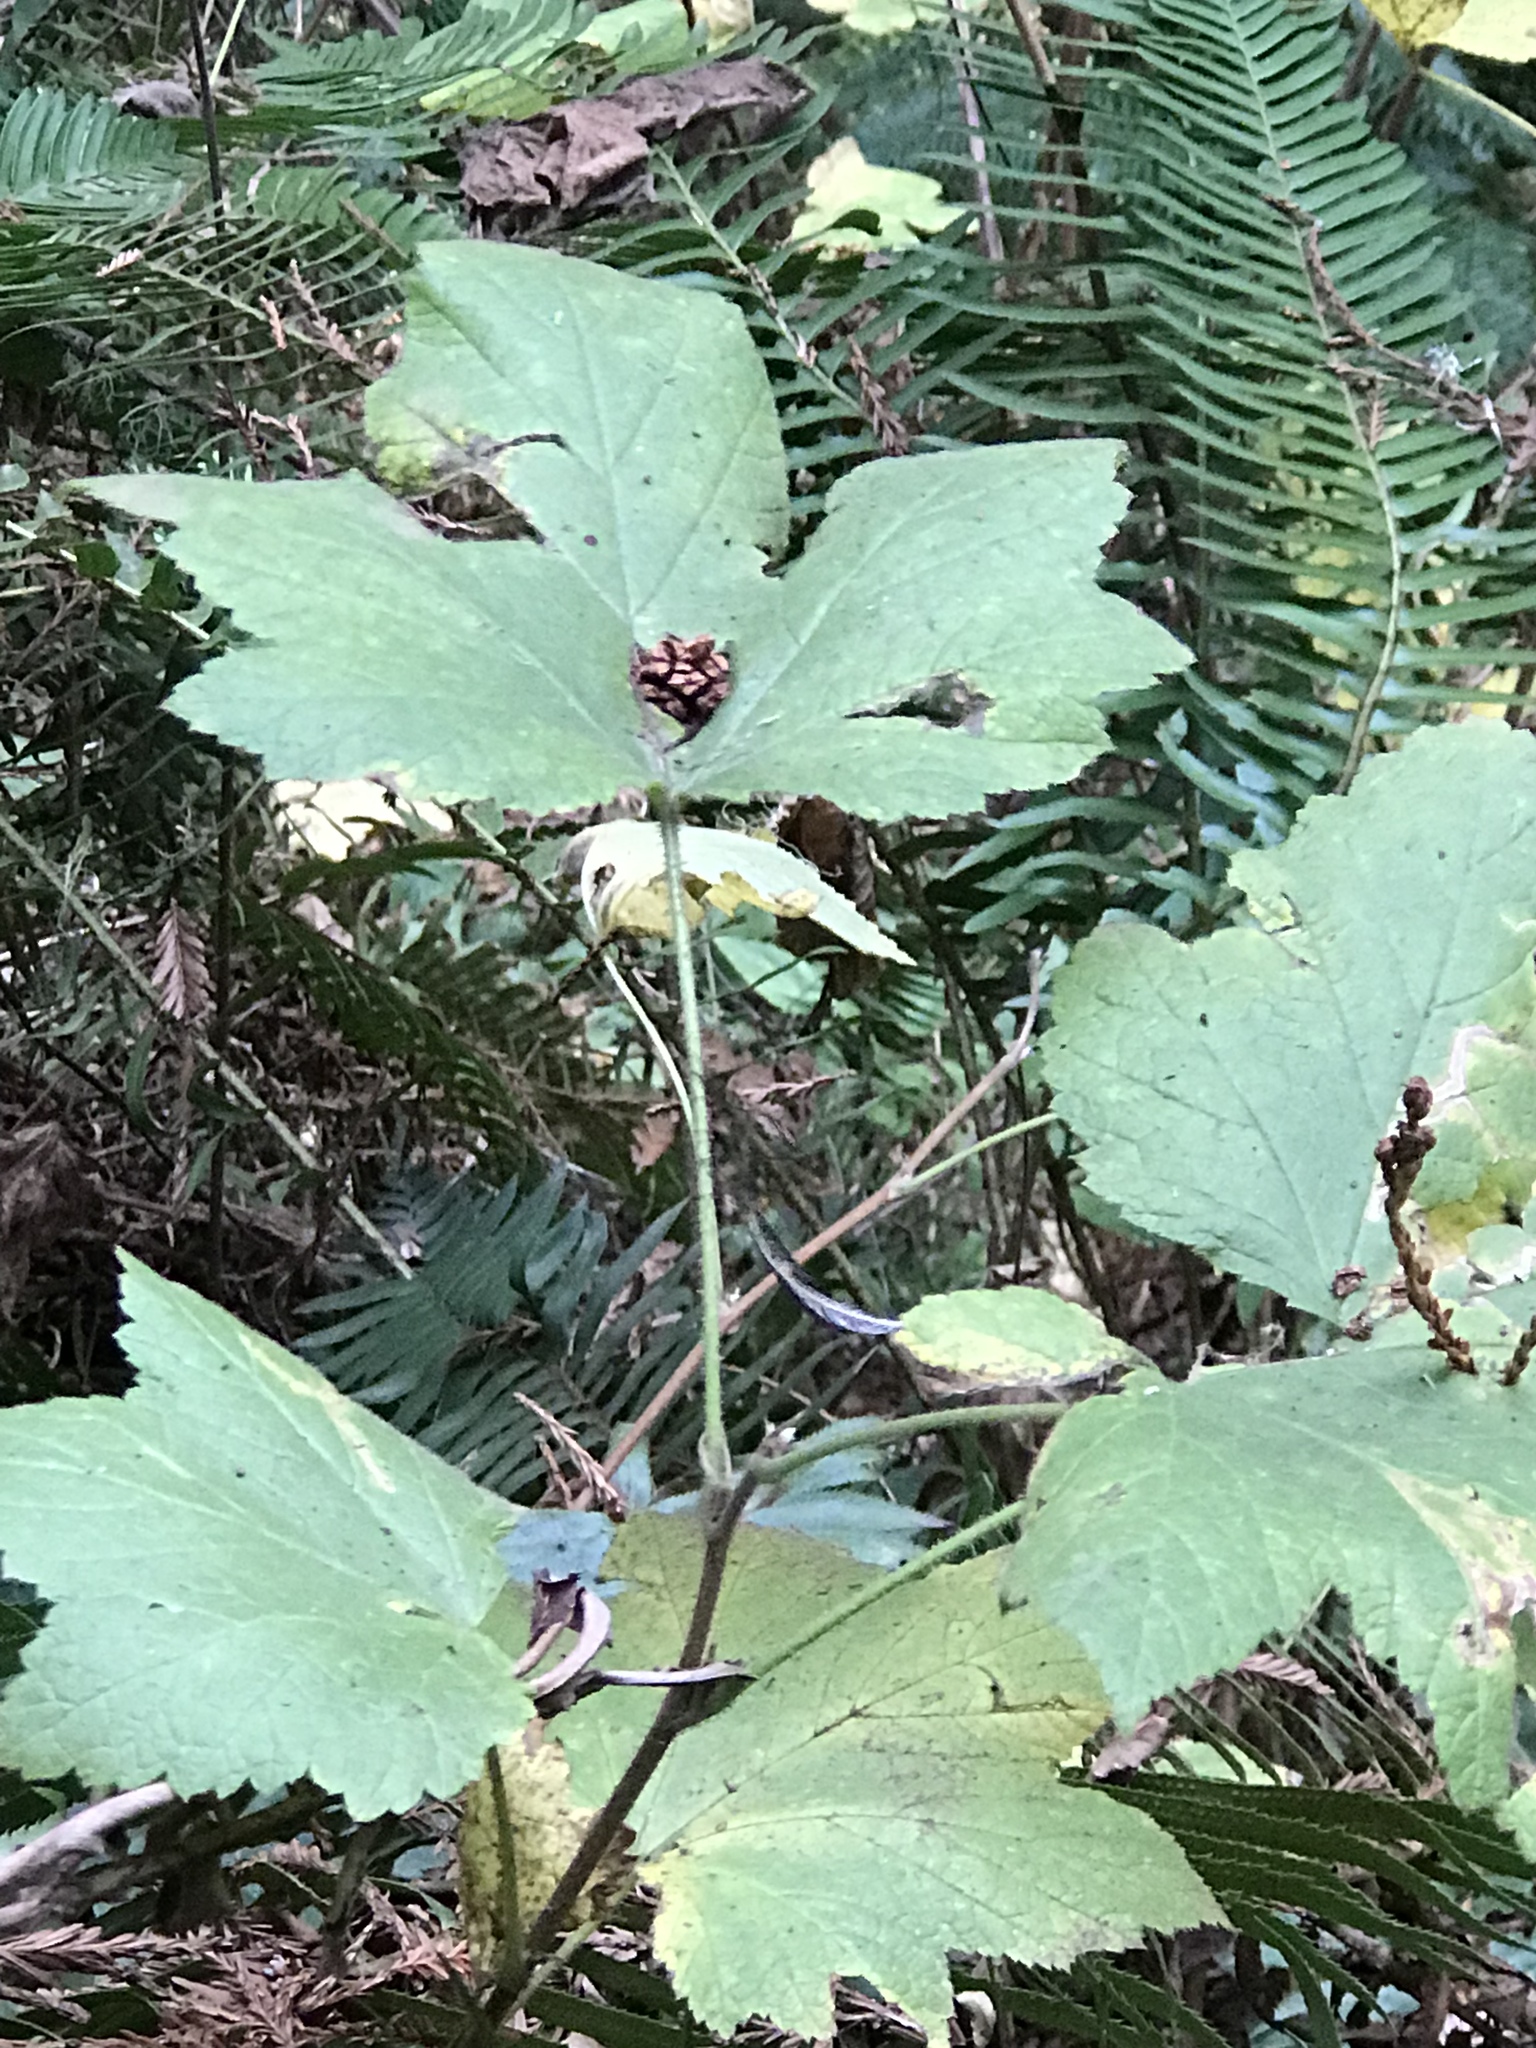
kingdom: Plantae
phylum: Tracheophyta
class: Magnoliopsida
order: Rosales
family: Rosaceae
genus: Rubus
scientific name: Rubus parviflorus
